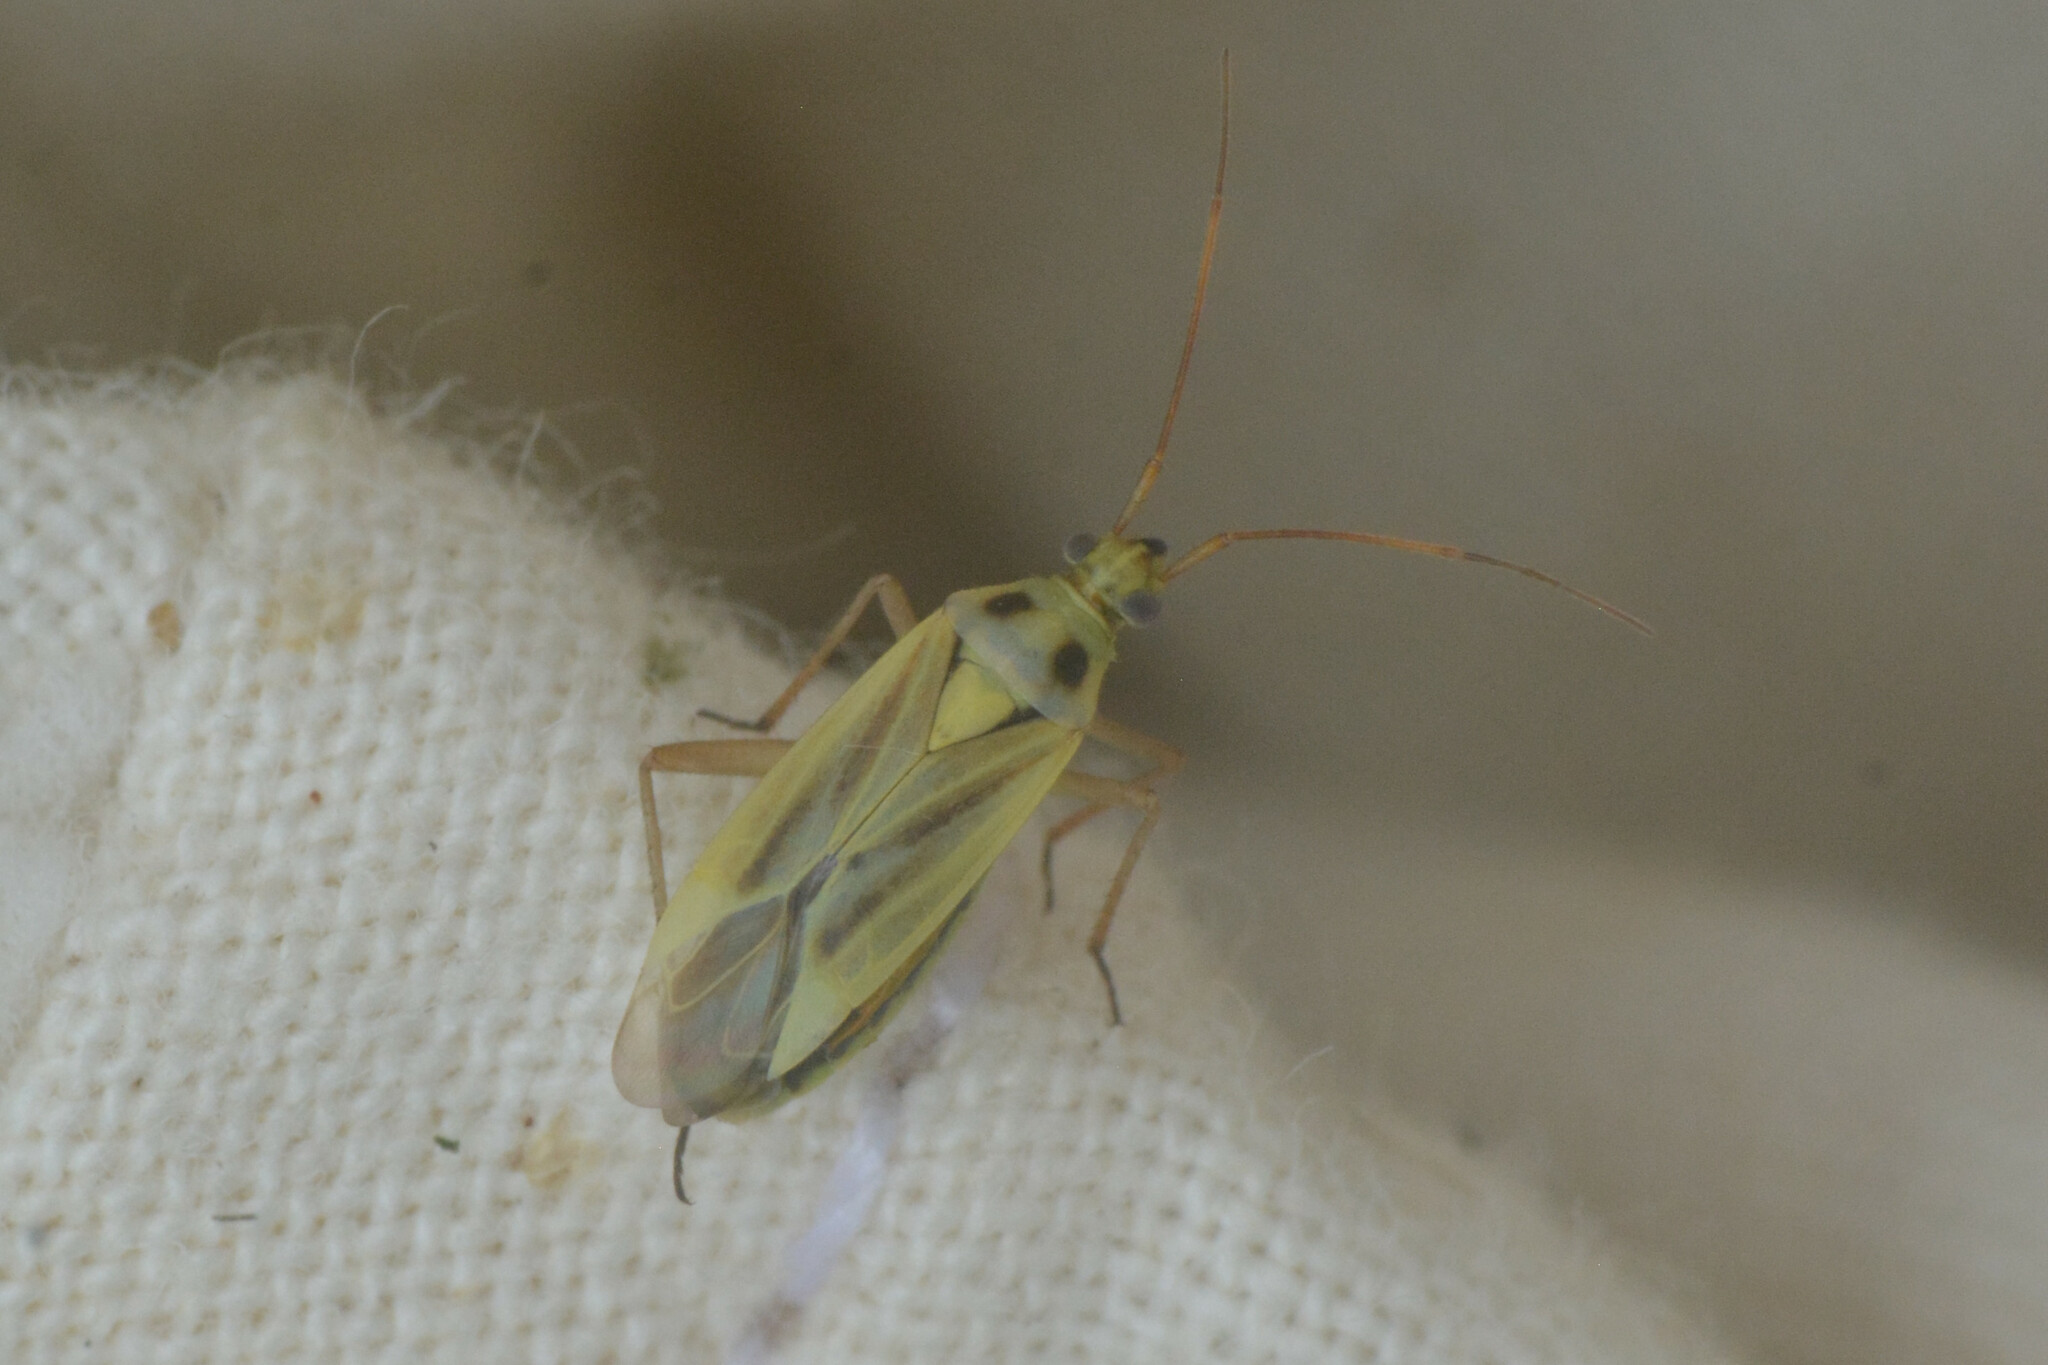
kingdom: Animalia
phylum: Arthropoda
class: Insecta
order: Hemiptera
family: Miridae
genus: Stenotus
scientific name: Stenotus binotatus
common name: Plant bug
